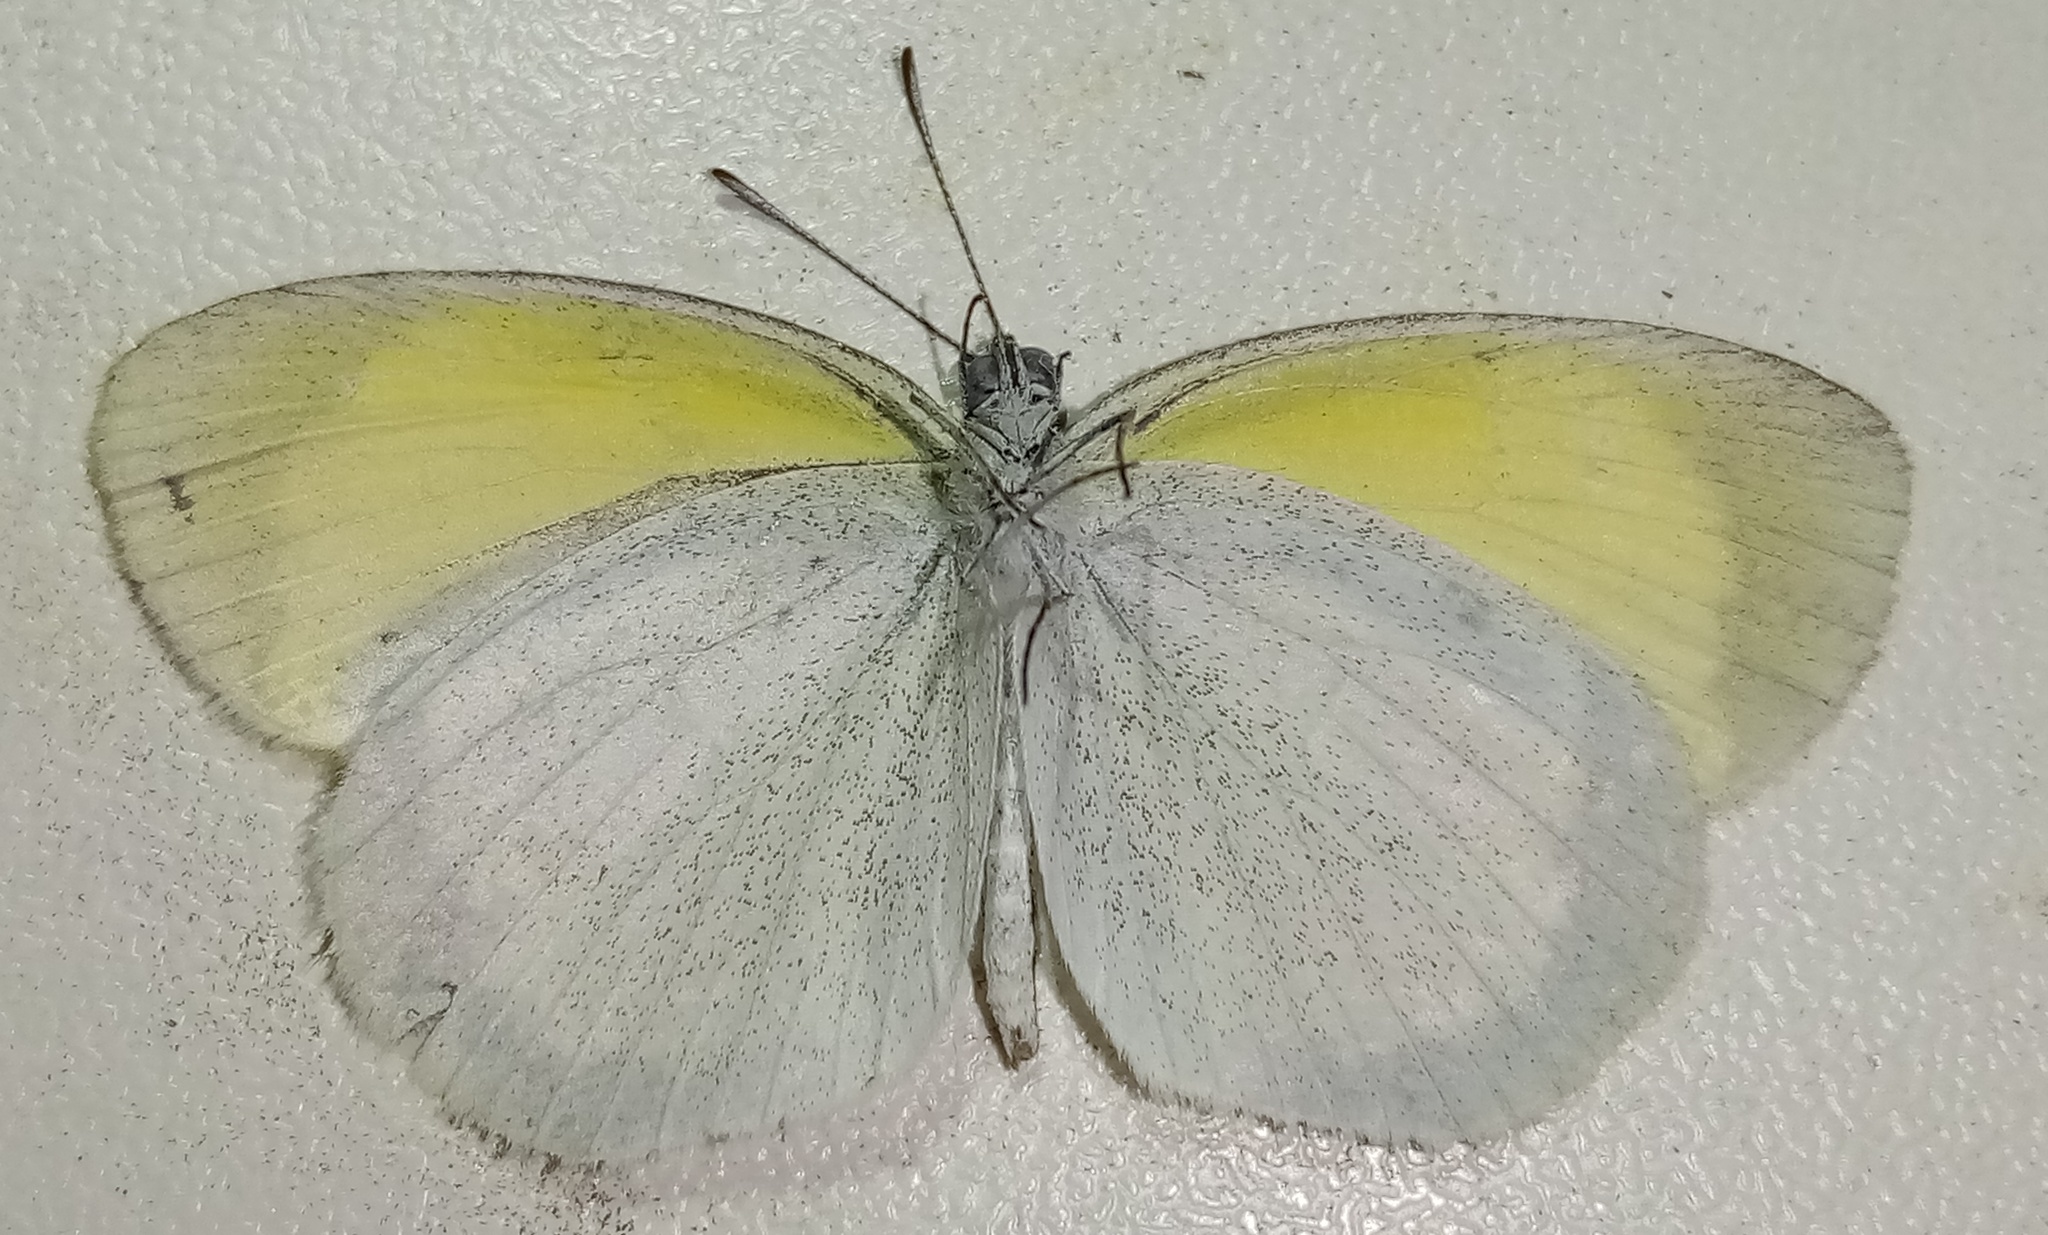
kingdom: Animalia
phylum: Arthropoda
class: Insecta
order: Lepidoptera
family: Pieridae
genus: Eurema
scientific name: Eurema daira
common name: Barred sulphur
